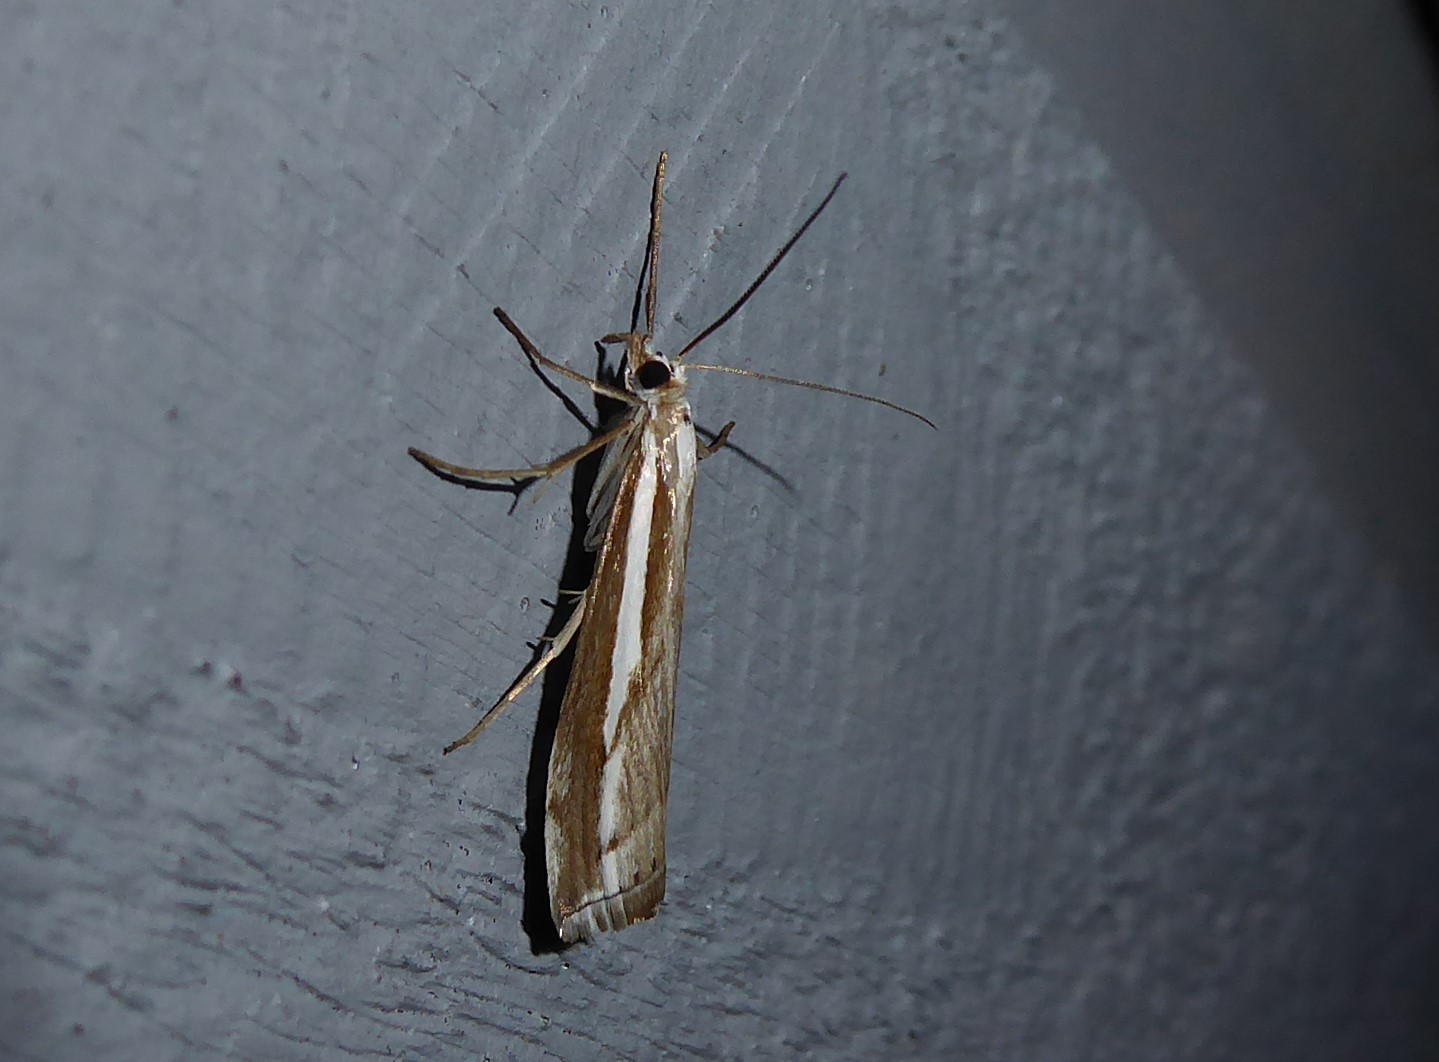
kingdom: Animalia
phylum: Arthropoda
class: Insecta
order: Lepidoptera
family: Crambidae
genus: Orocrambus
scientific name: Orocrambus vittellus
